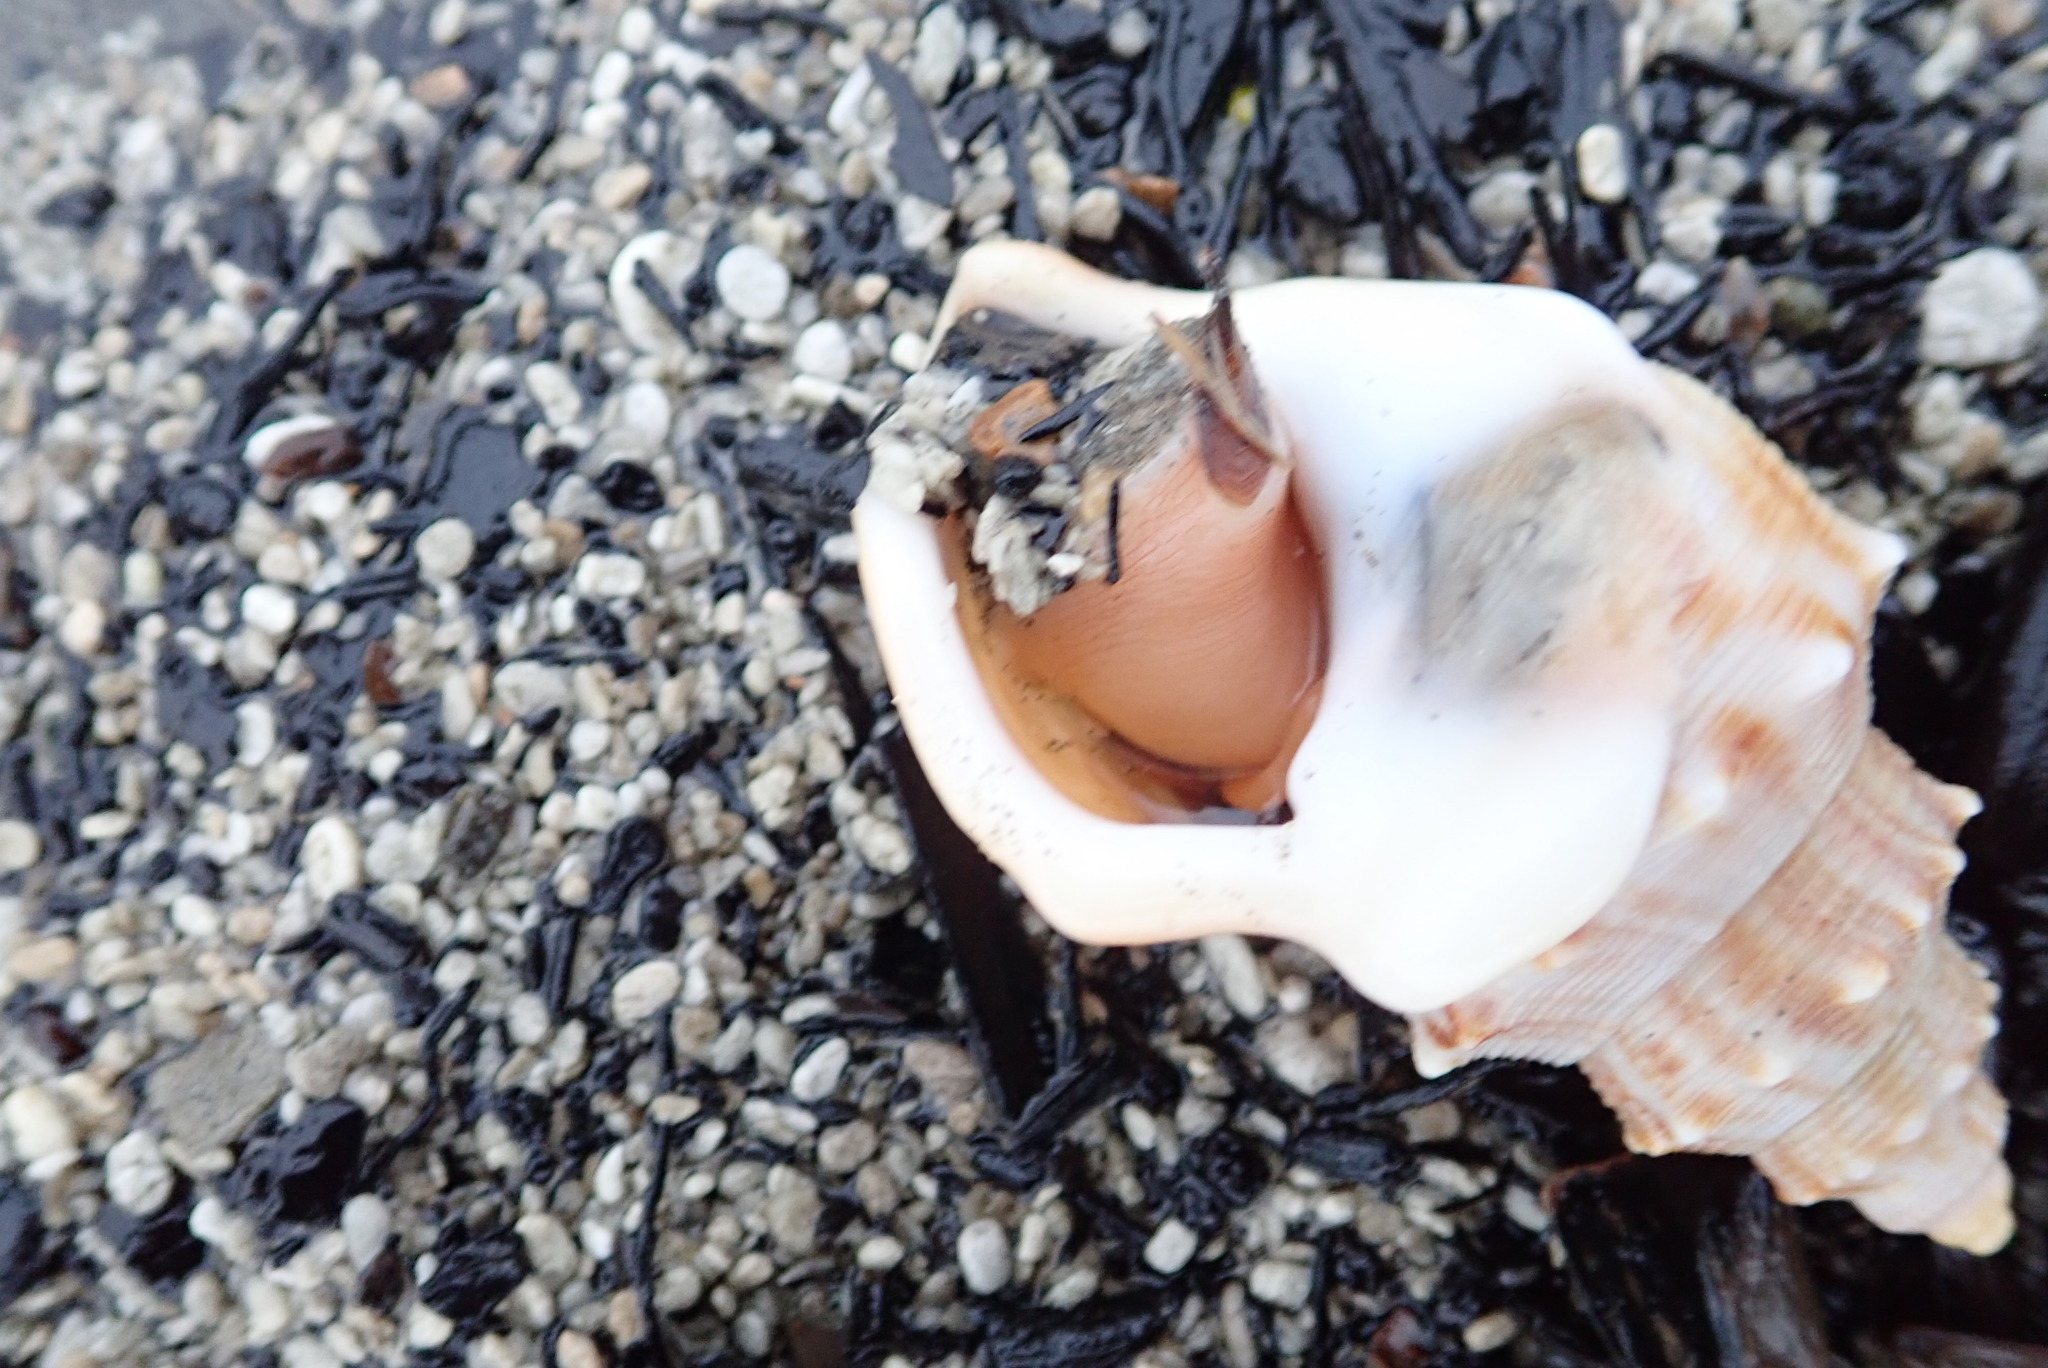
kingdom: Animalia
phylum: Mollusca
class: Gastropoda
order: Littorinimorpha
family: Struthiolariidae
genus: Struthiolaria
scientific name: Struthiolaria papulosa
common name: Large ostrich foot
